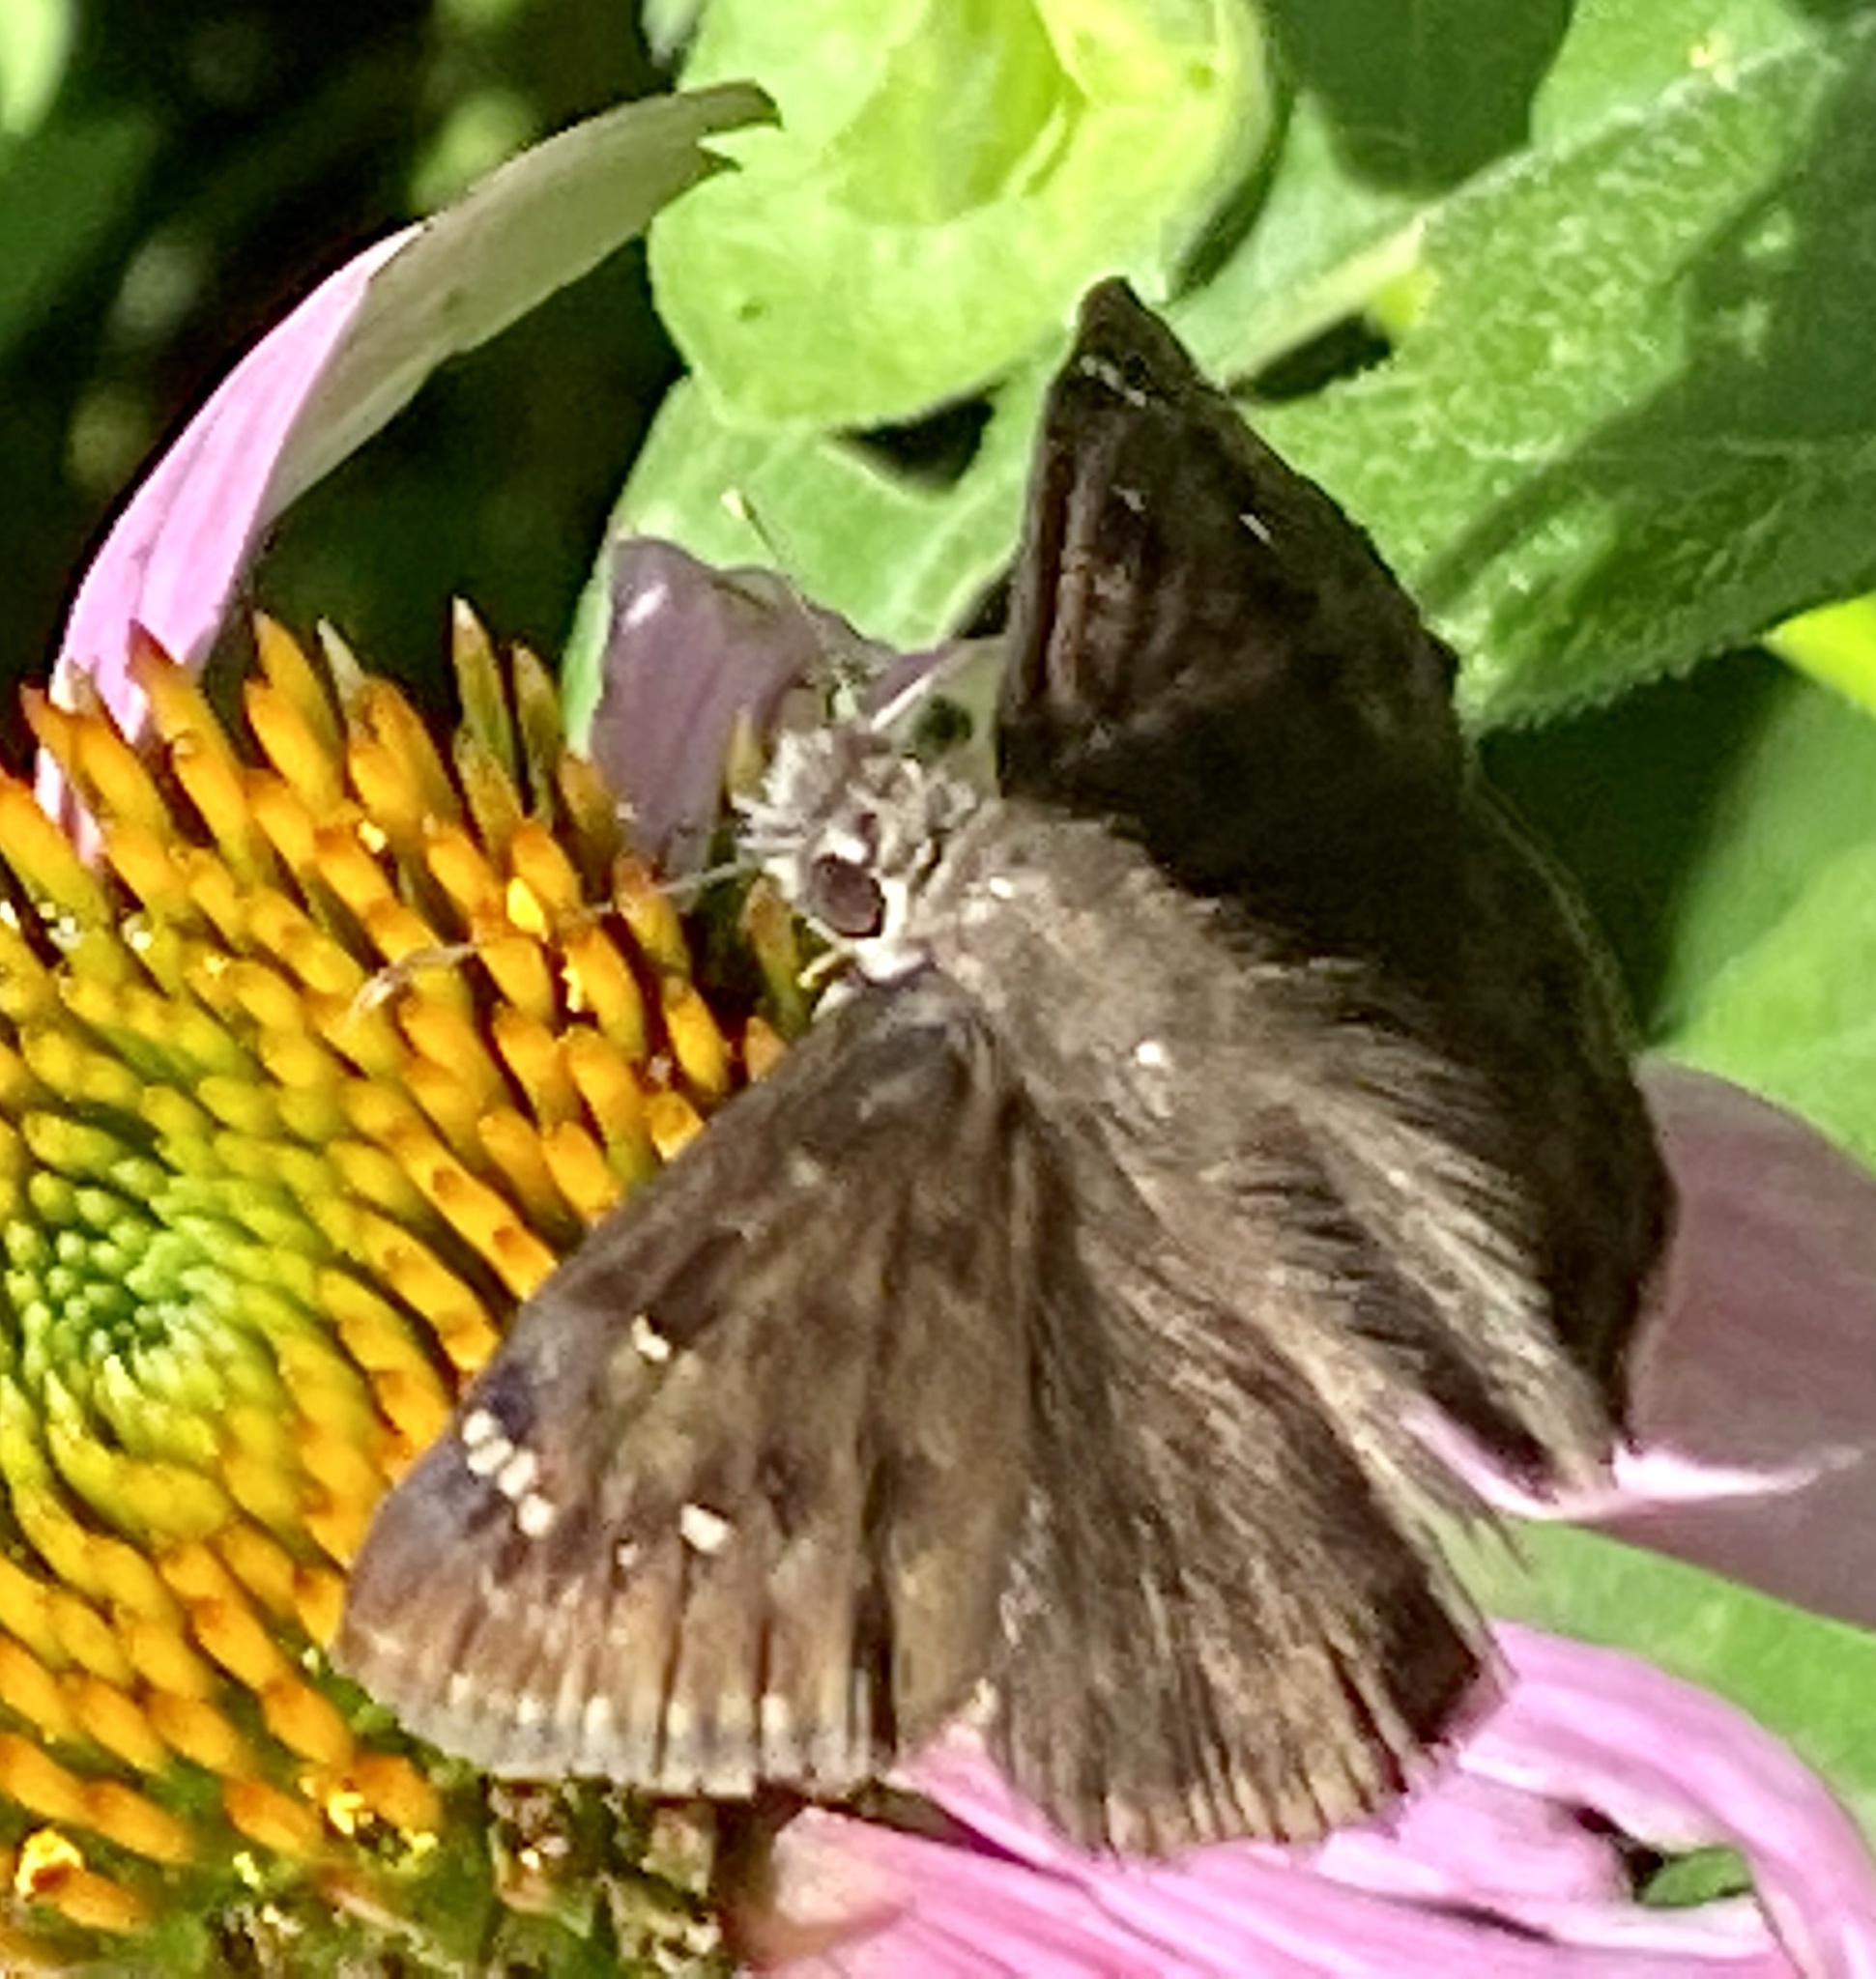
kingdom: Animalia
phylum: Arthropoda
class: Insecta
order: Lepidoptera
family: Hesperiidae
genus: Erynnis
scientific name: Erynnis horatius
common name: Horace's duskywing
